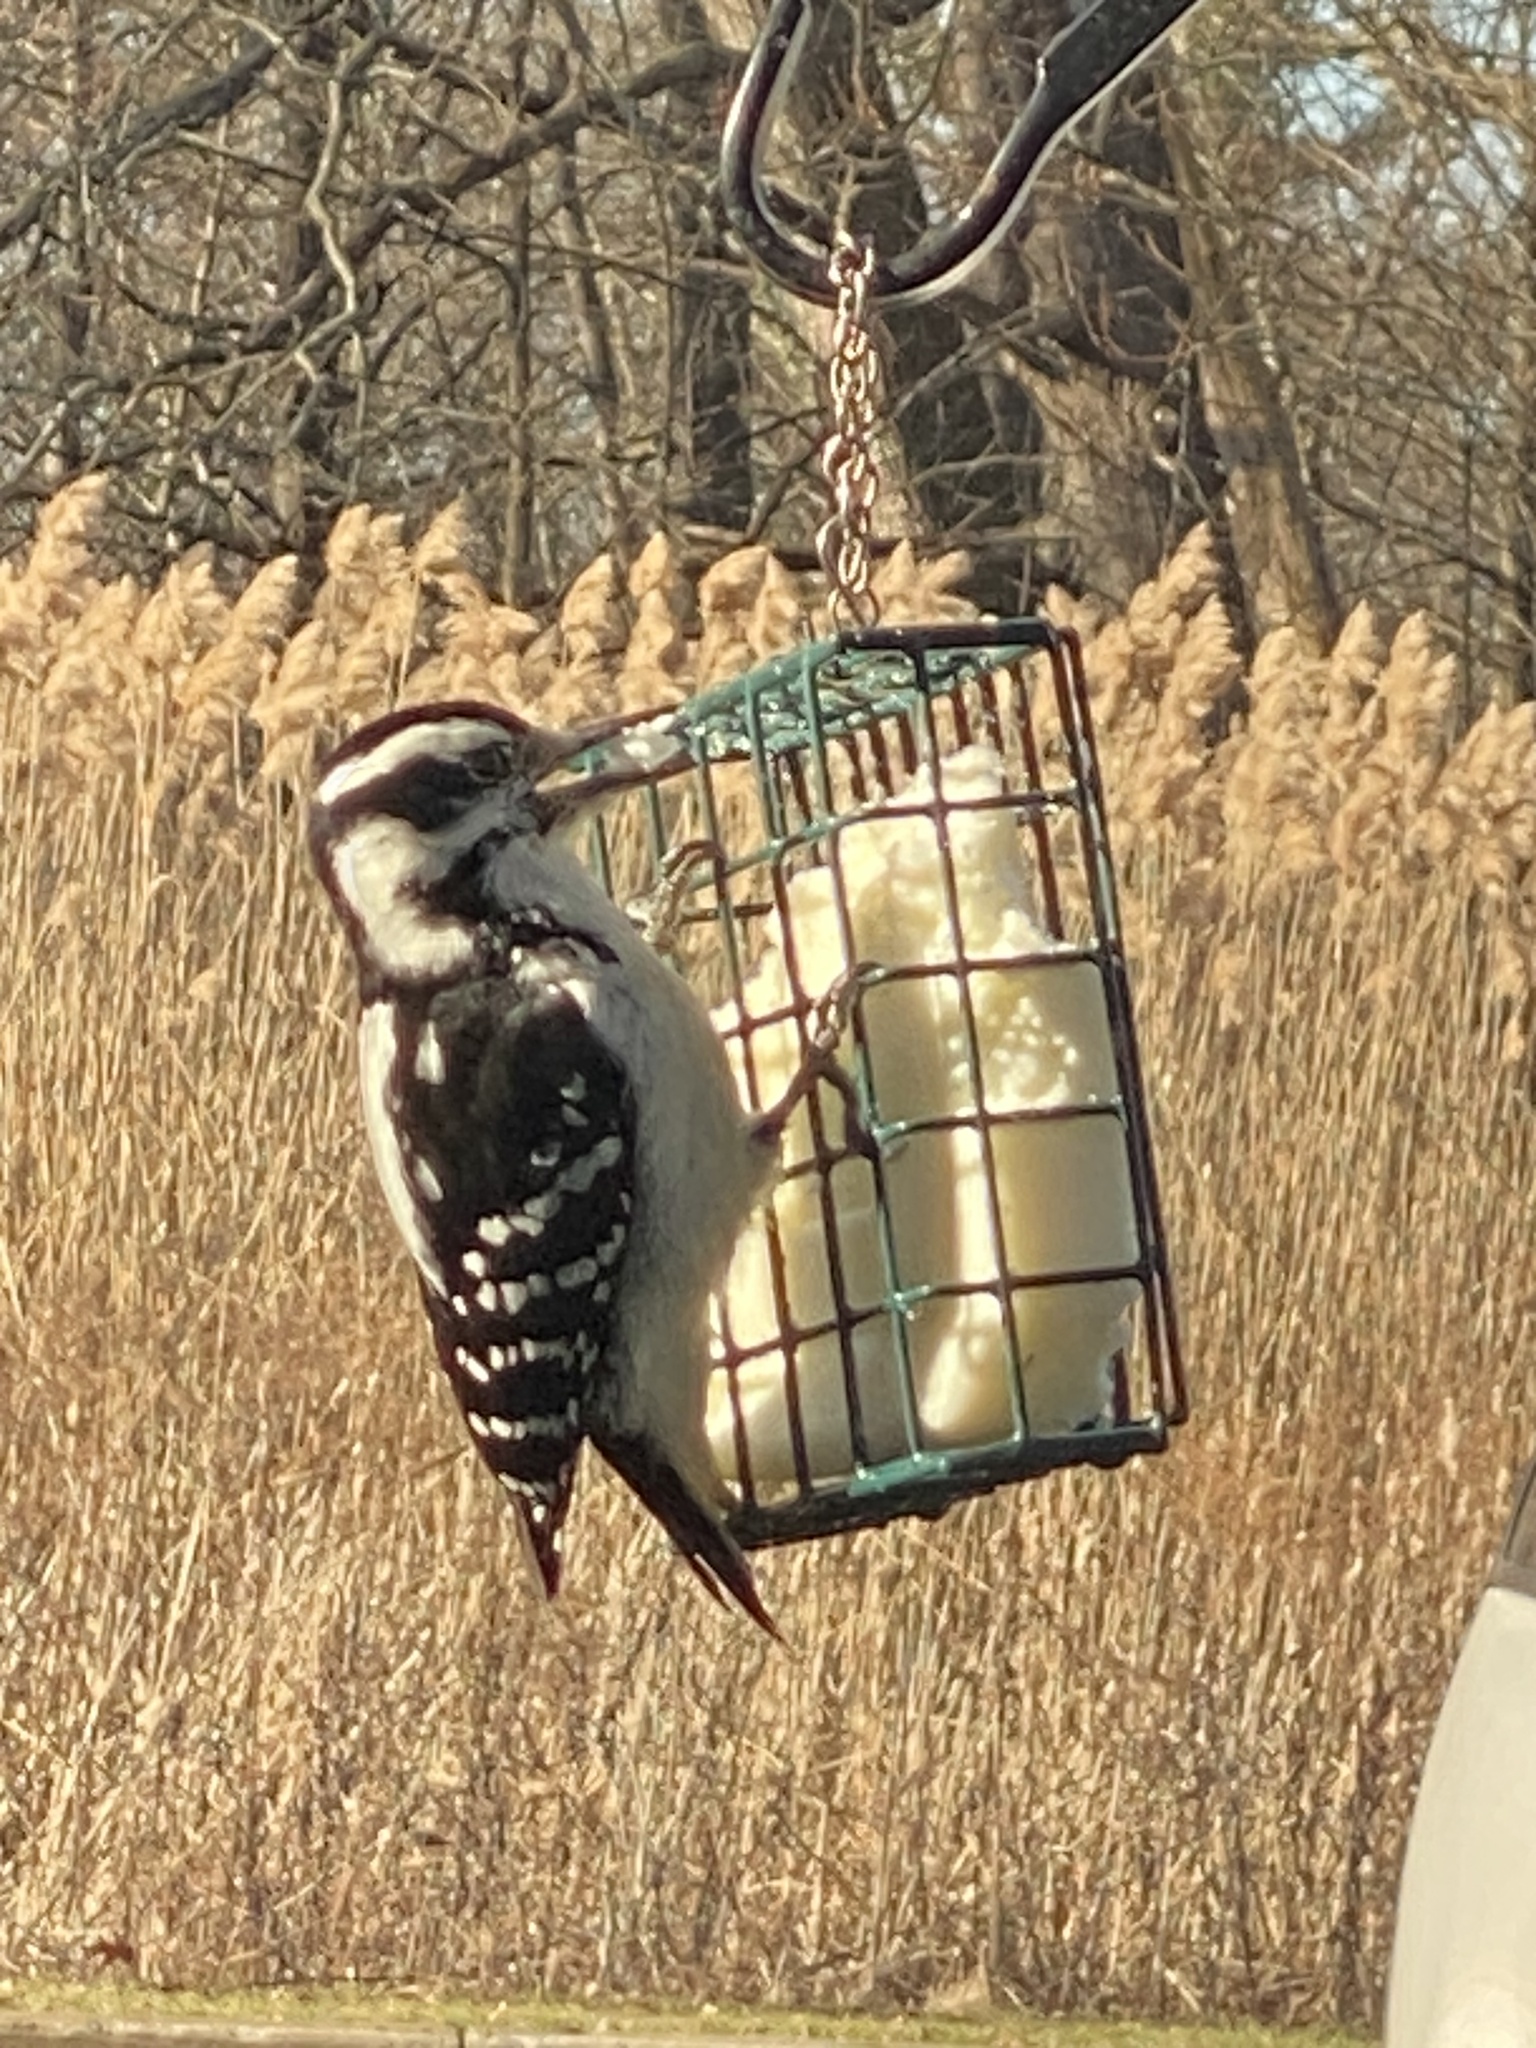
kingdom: Animalia
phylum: Chordata
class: Aves
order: Piciformes
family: Picidae
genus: Leuconotopicus
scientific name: Leuconotopicus villosus
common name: Hairy woodpecker
